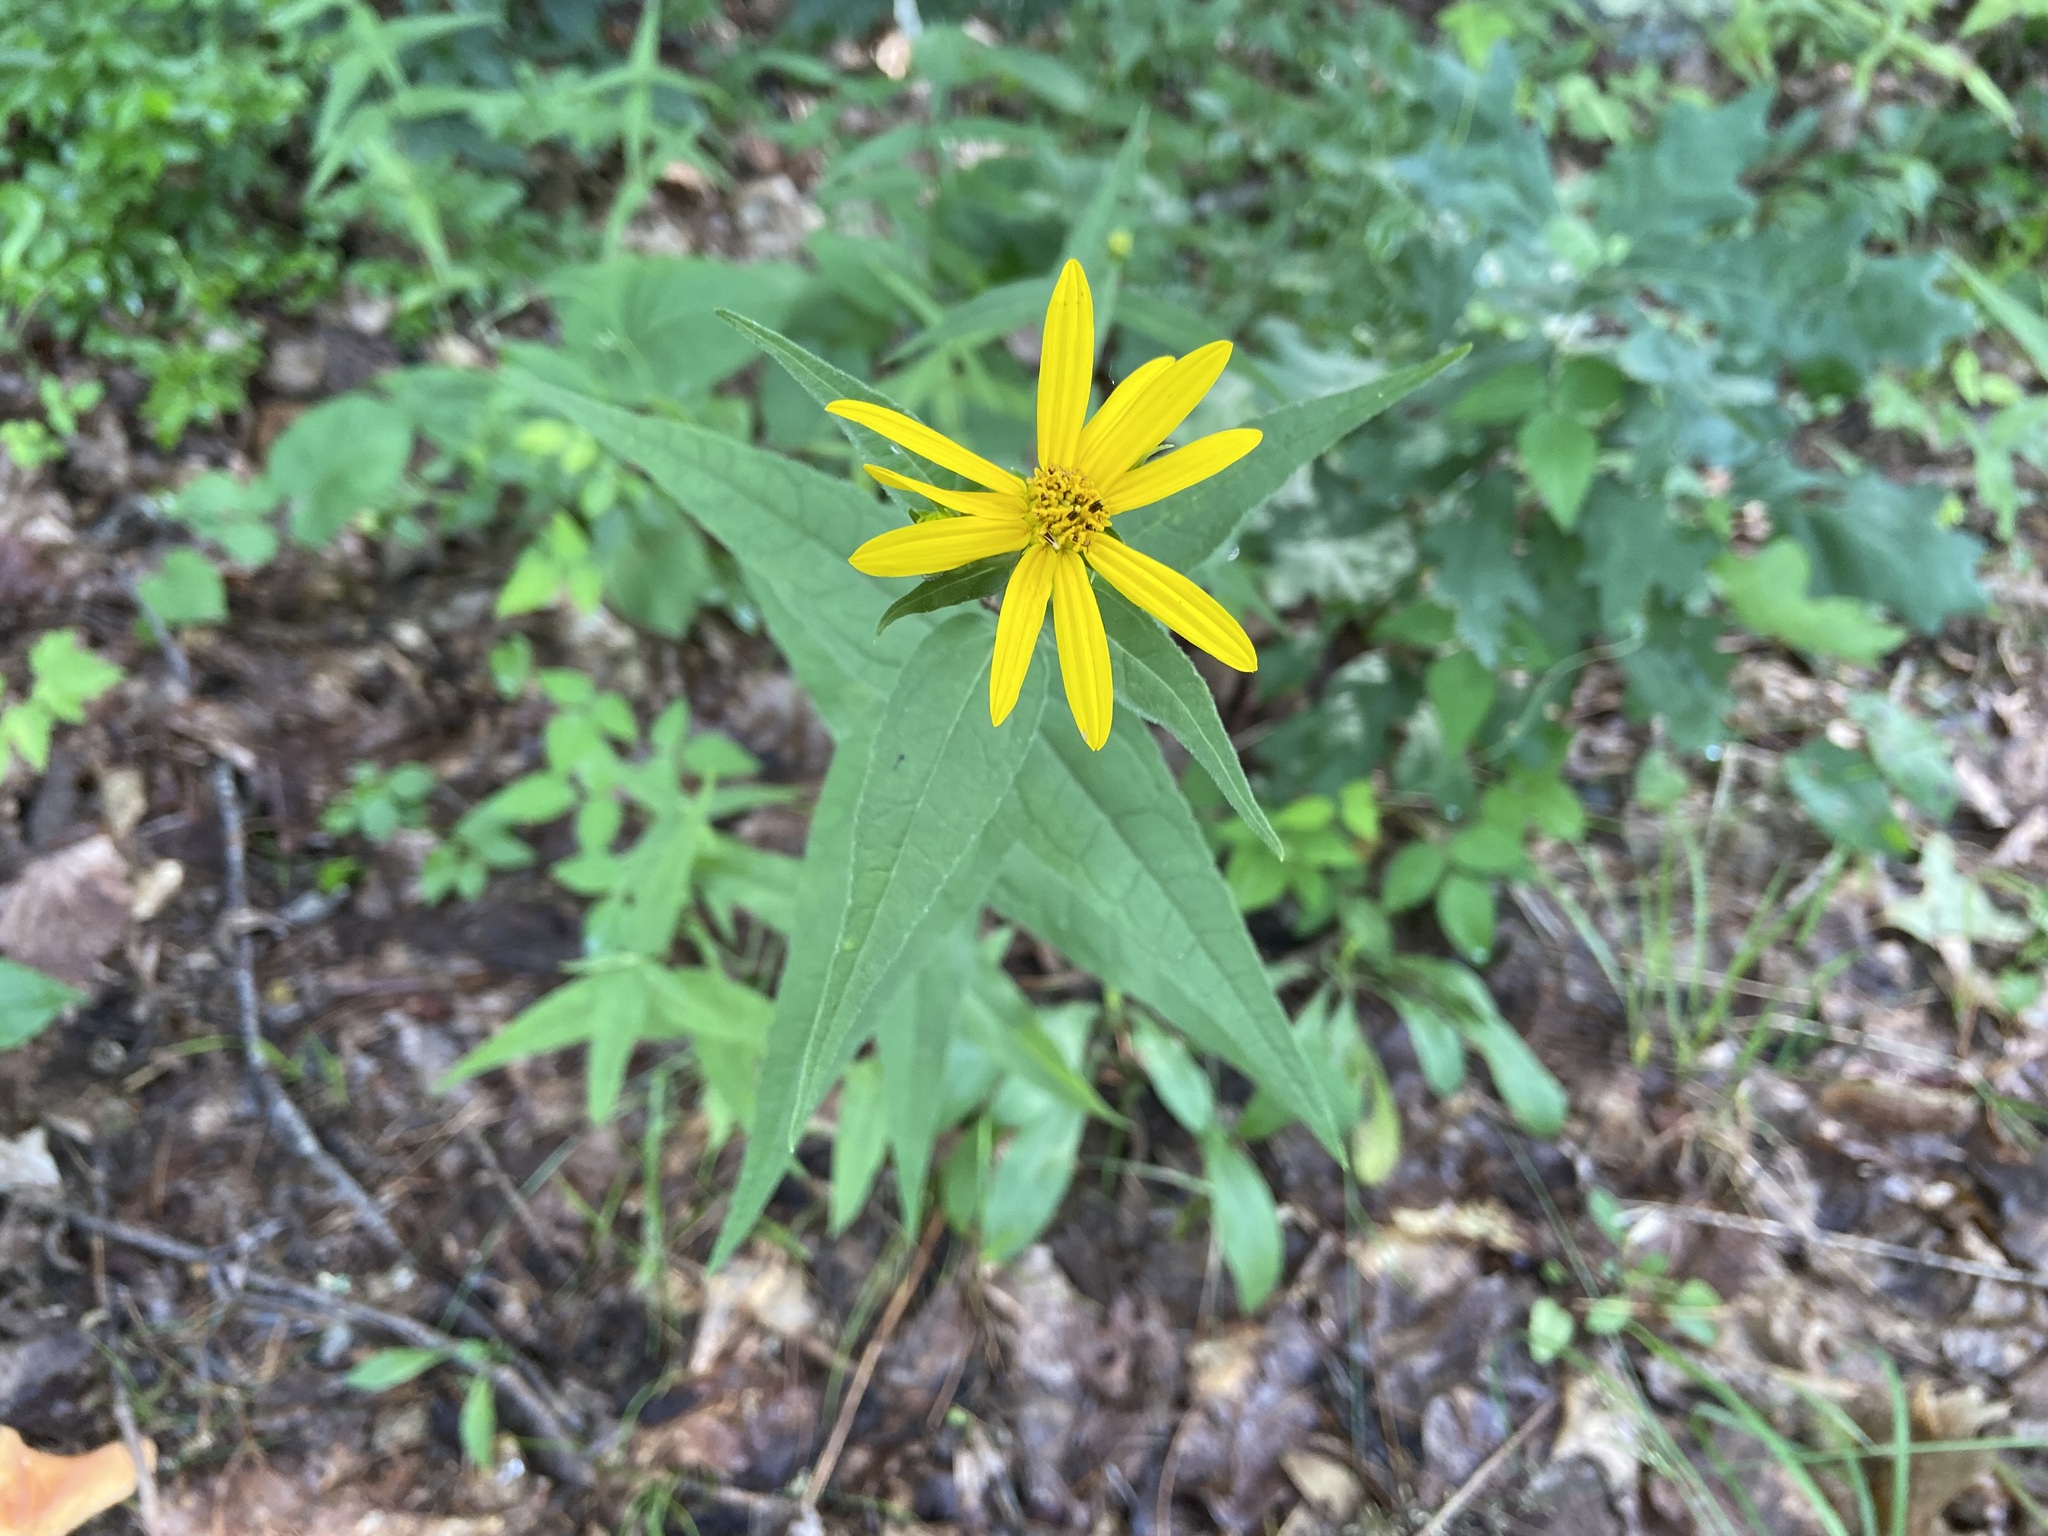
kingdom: Plantae
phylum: Tracheophyta
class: Magnoliopsida
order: Asterales
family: Asteraceae
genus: Helianthus
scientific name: Helianthus divaricatus
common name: Divergent sunflower
